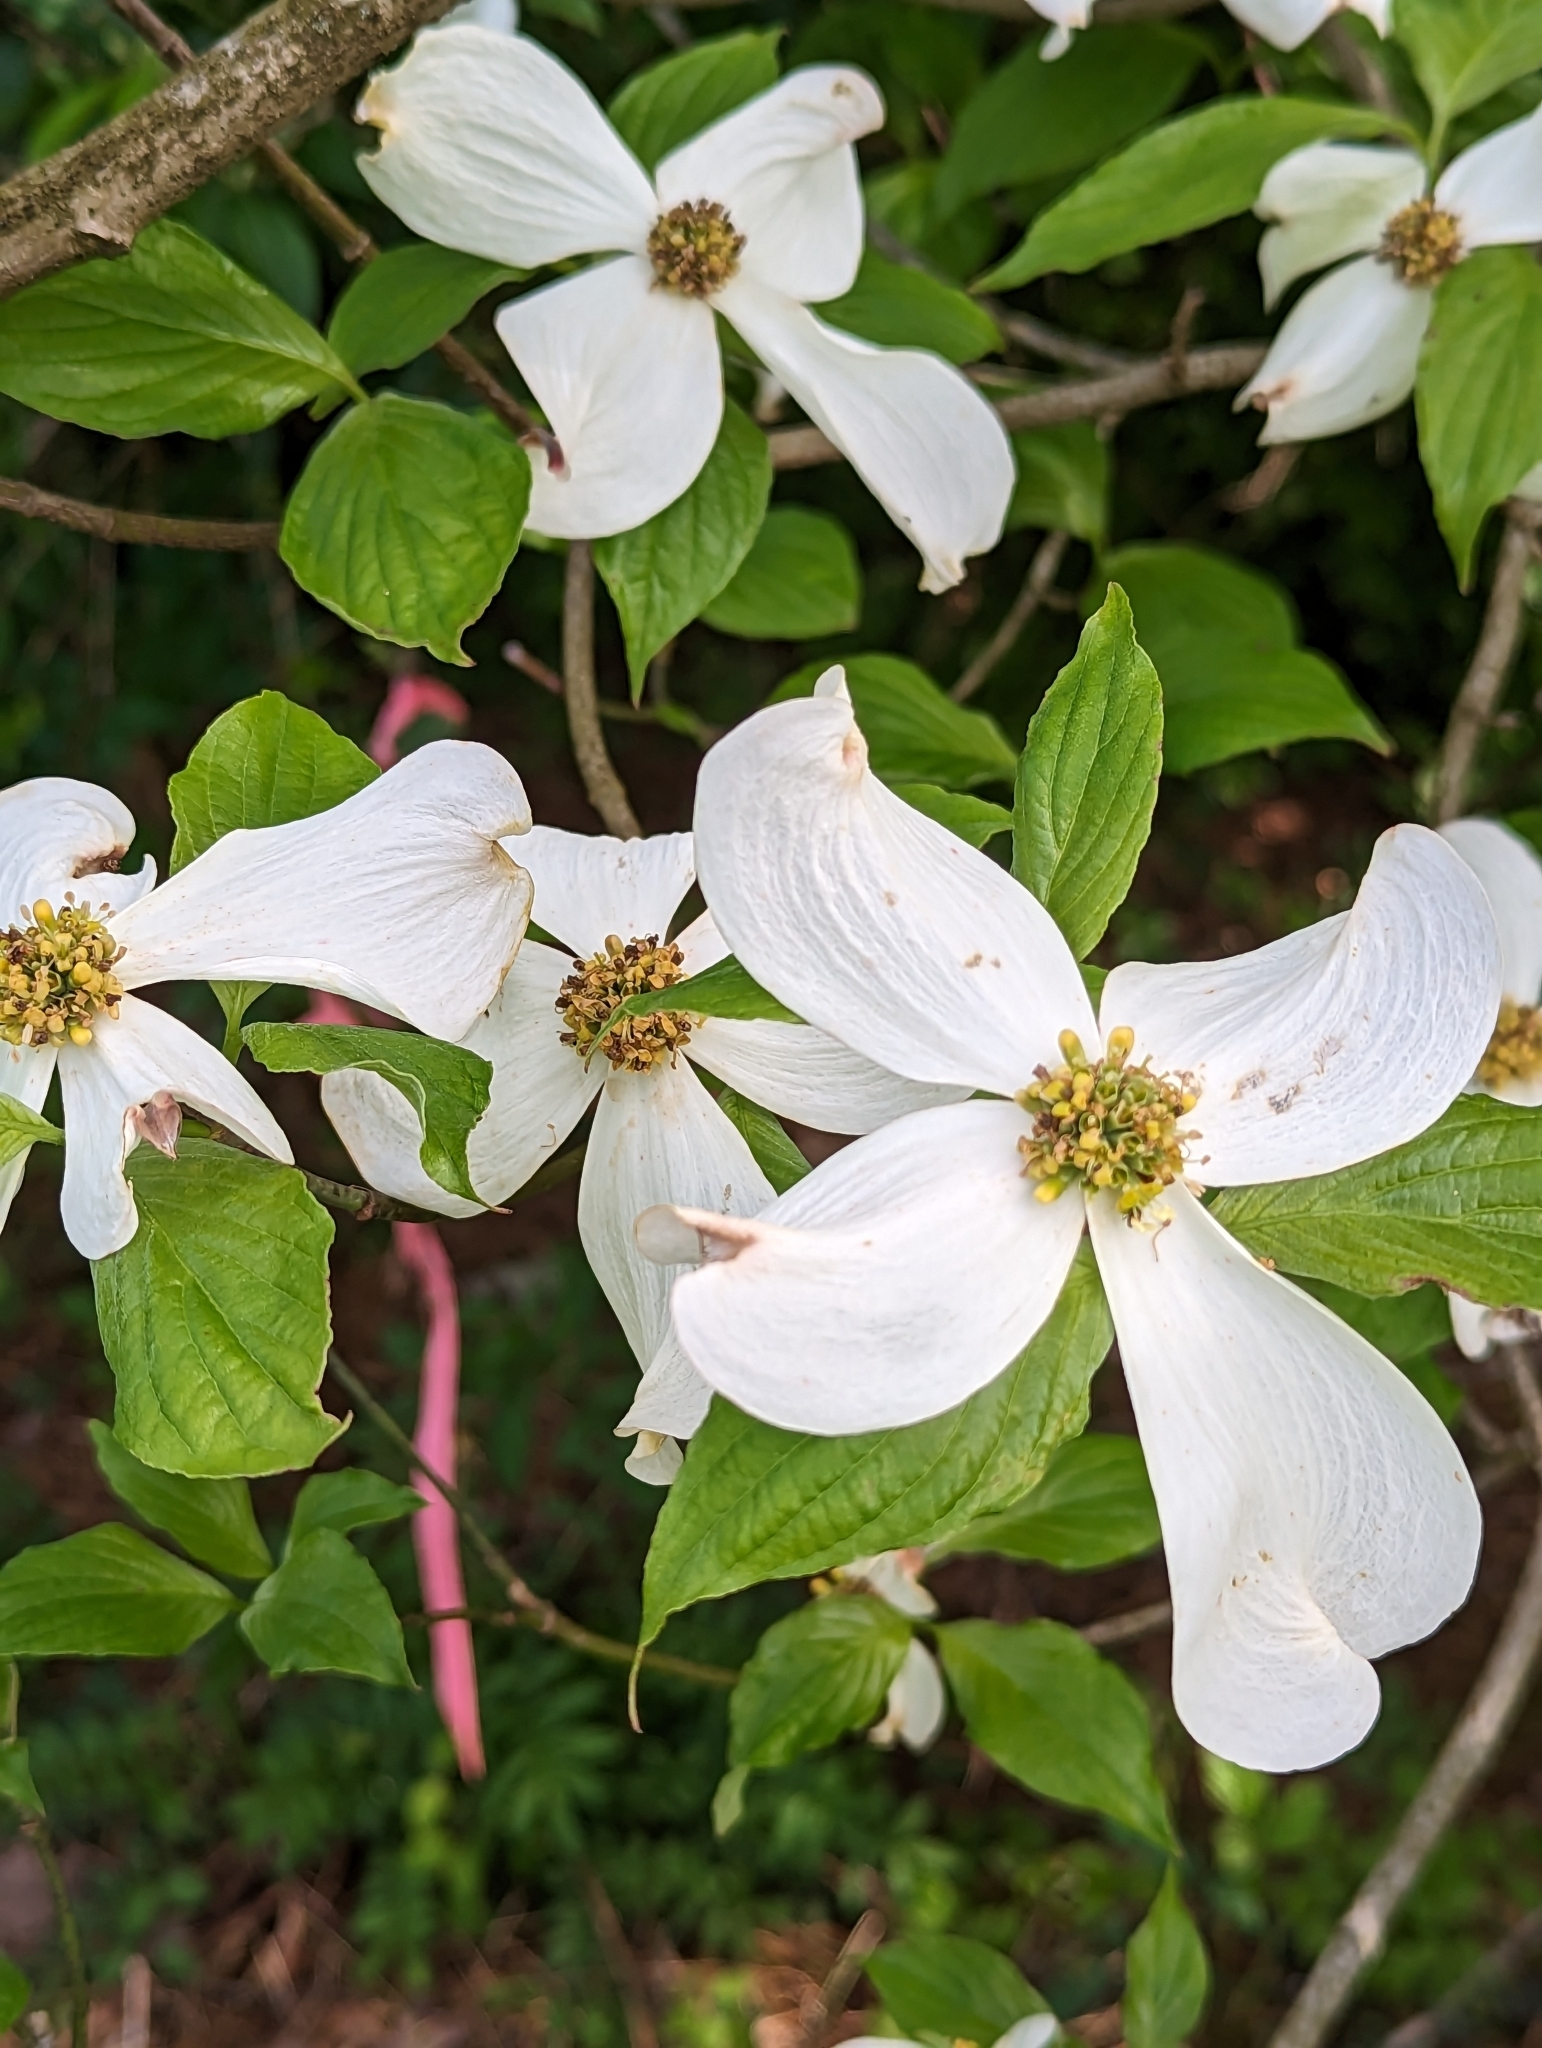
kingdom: Plantae
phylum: Tracheophyta
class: Magnoliopsida
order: Cornales
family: Cornaceae
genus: Cornus
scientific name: Cornus florida
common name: Flowering dogwood
